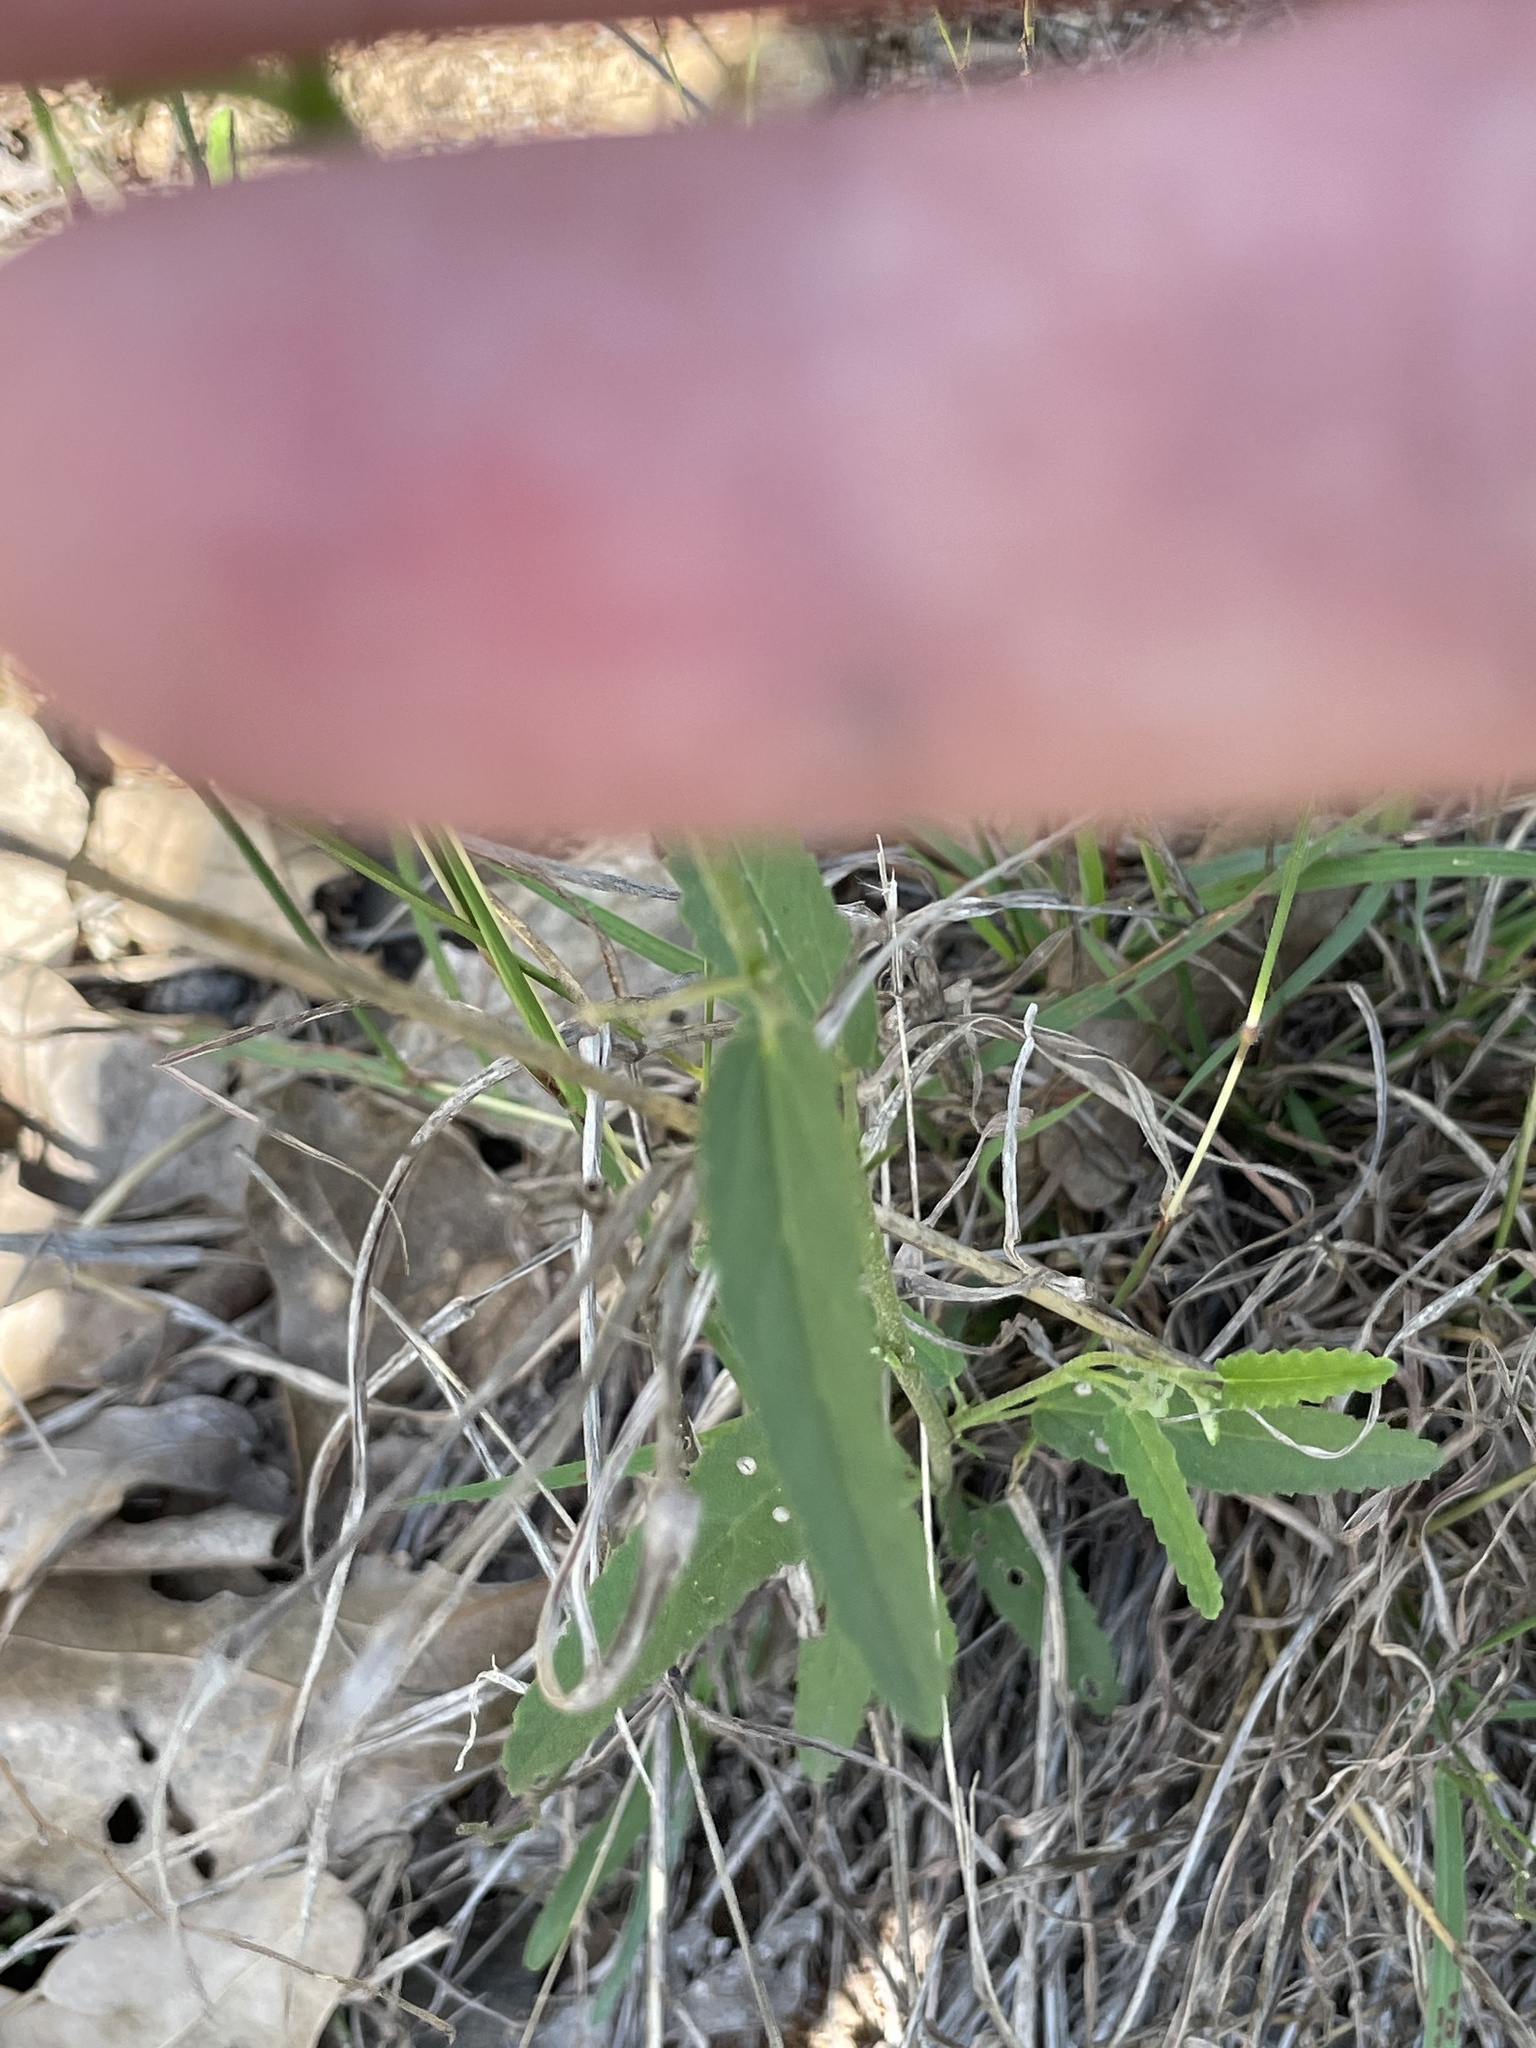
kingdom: Plantae
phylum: Tracheophyta
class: Magnoliopsida
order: Malvales
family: Malvaceae
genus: Sida
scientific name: Sida spinosa
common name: Prickly fanpetals
